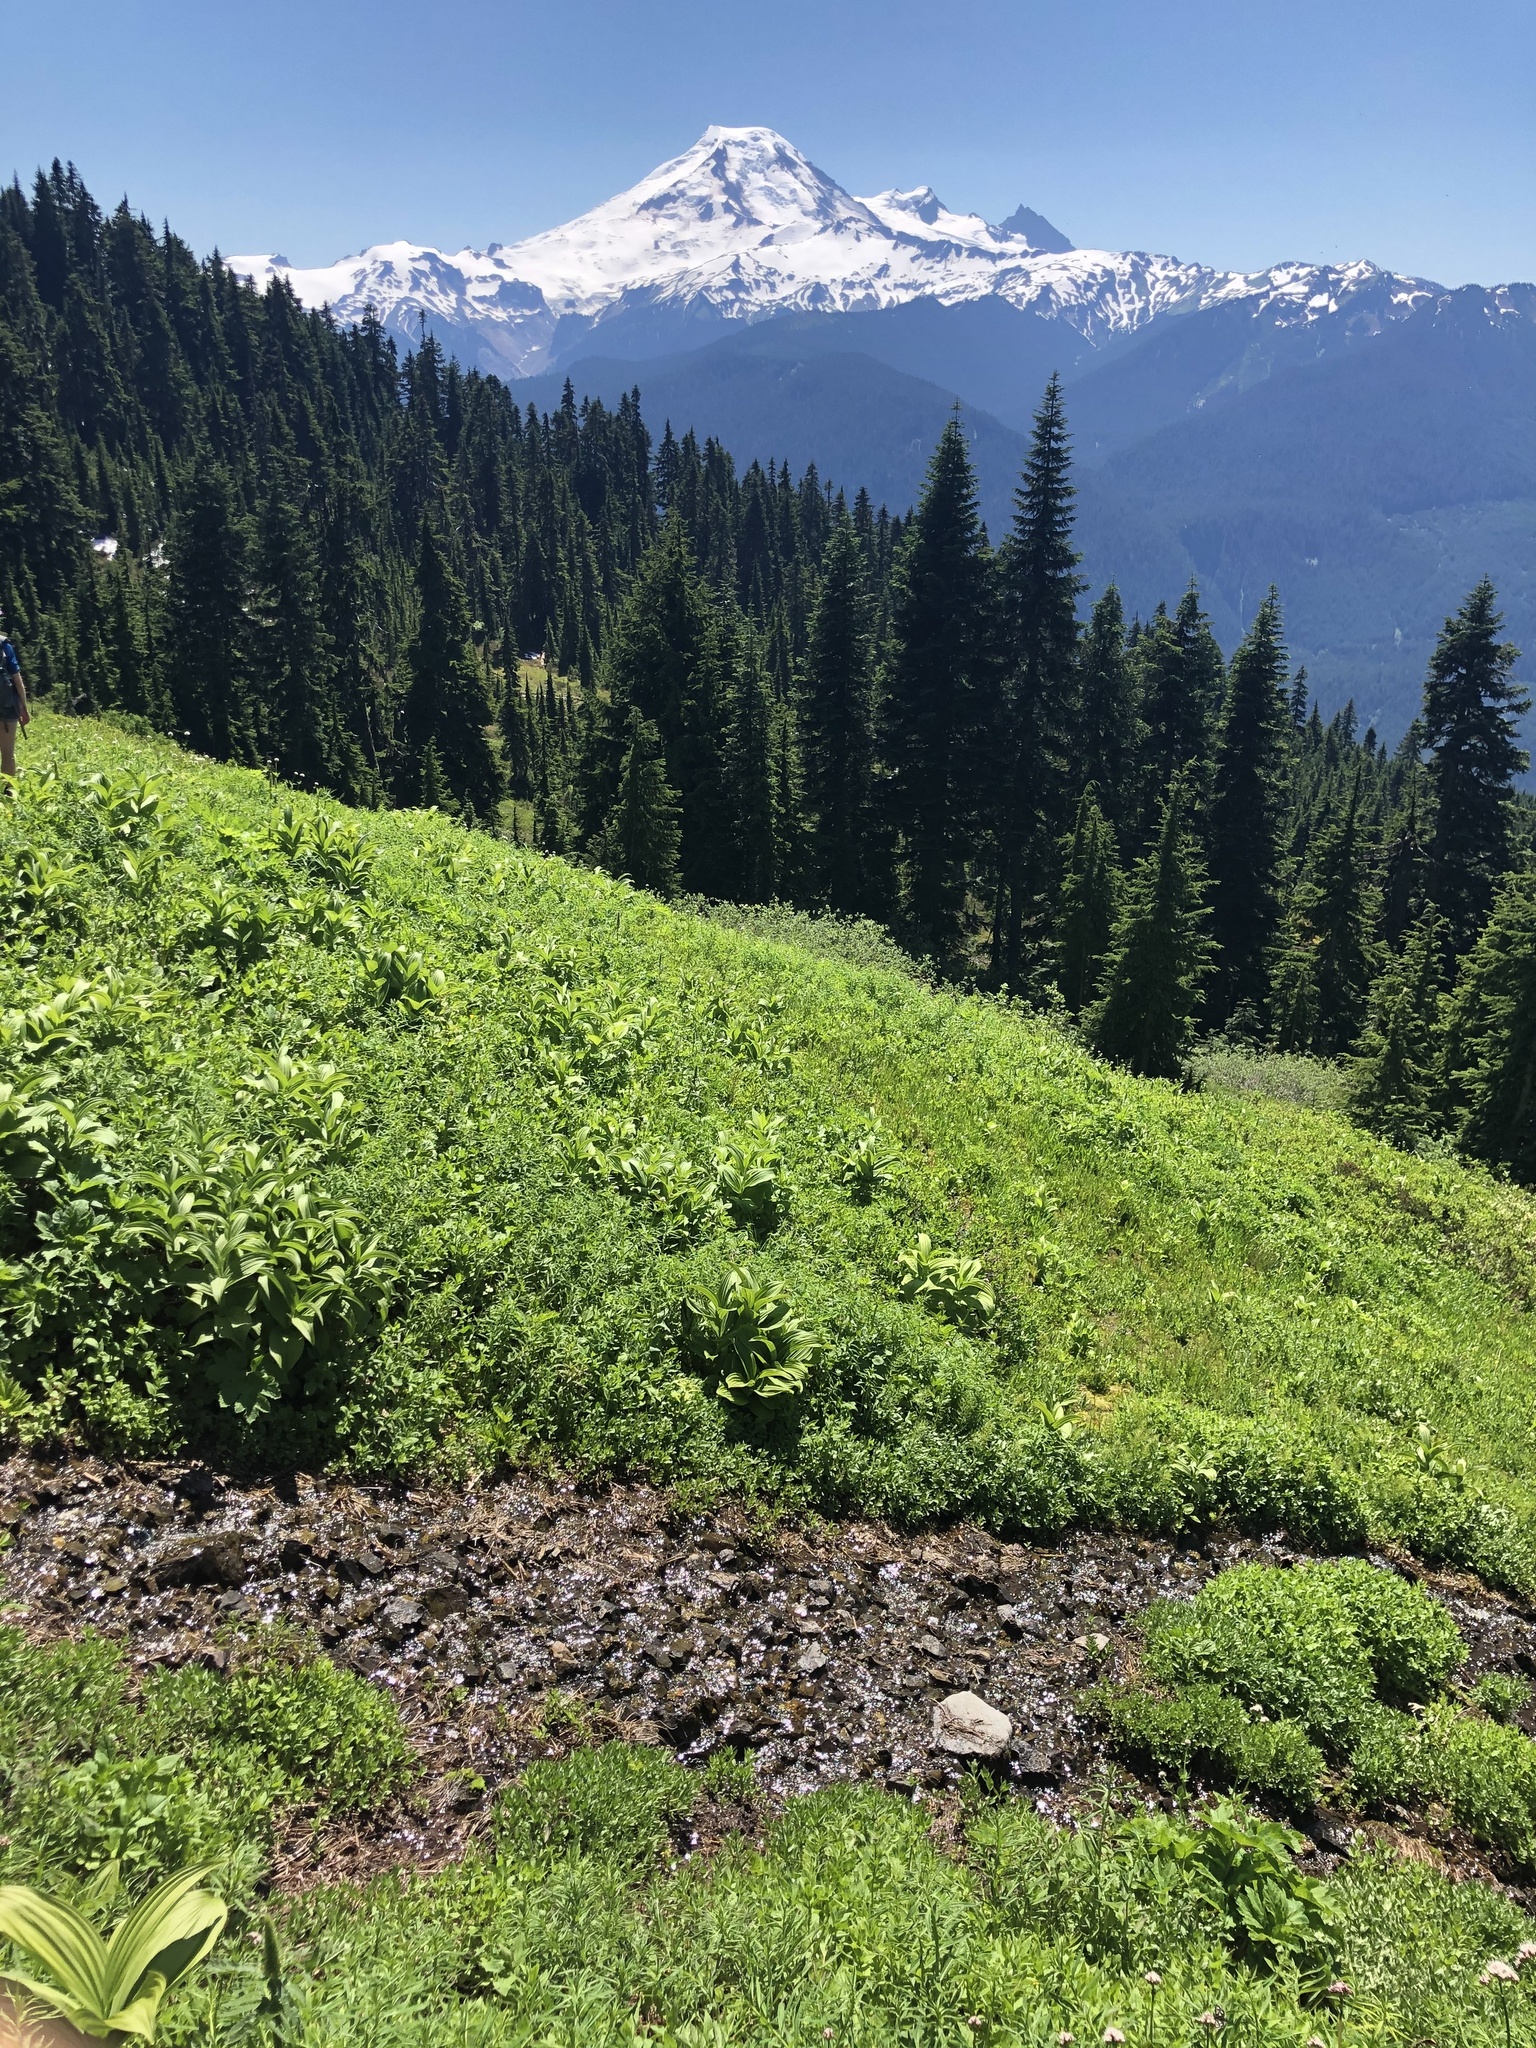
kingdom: Plantae
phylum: Tracheophyta
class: Liliopsida
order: Liliales
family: Melanthiaceae
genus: Veratrum
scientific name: Veratrum viride
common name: American false hellebore
